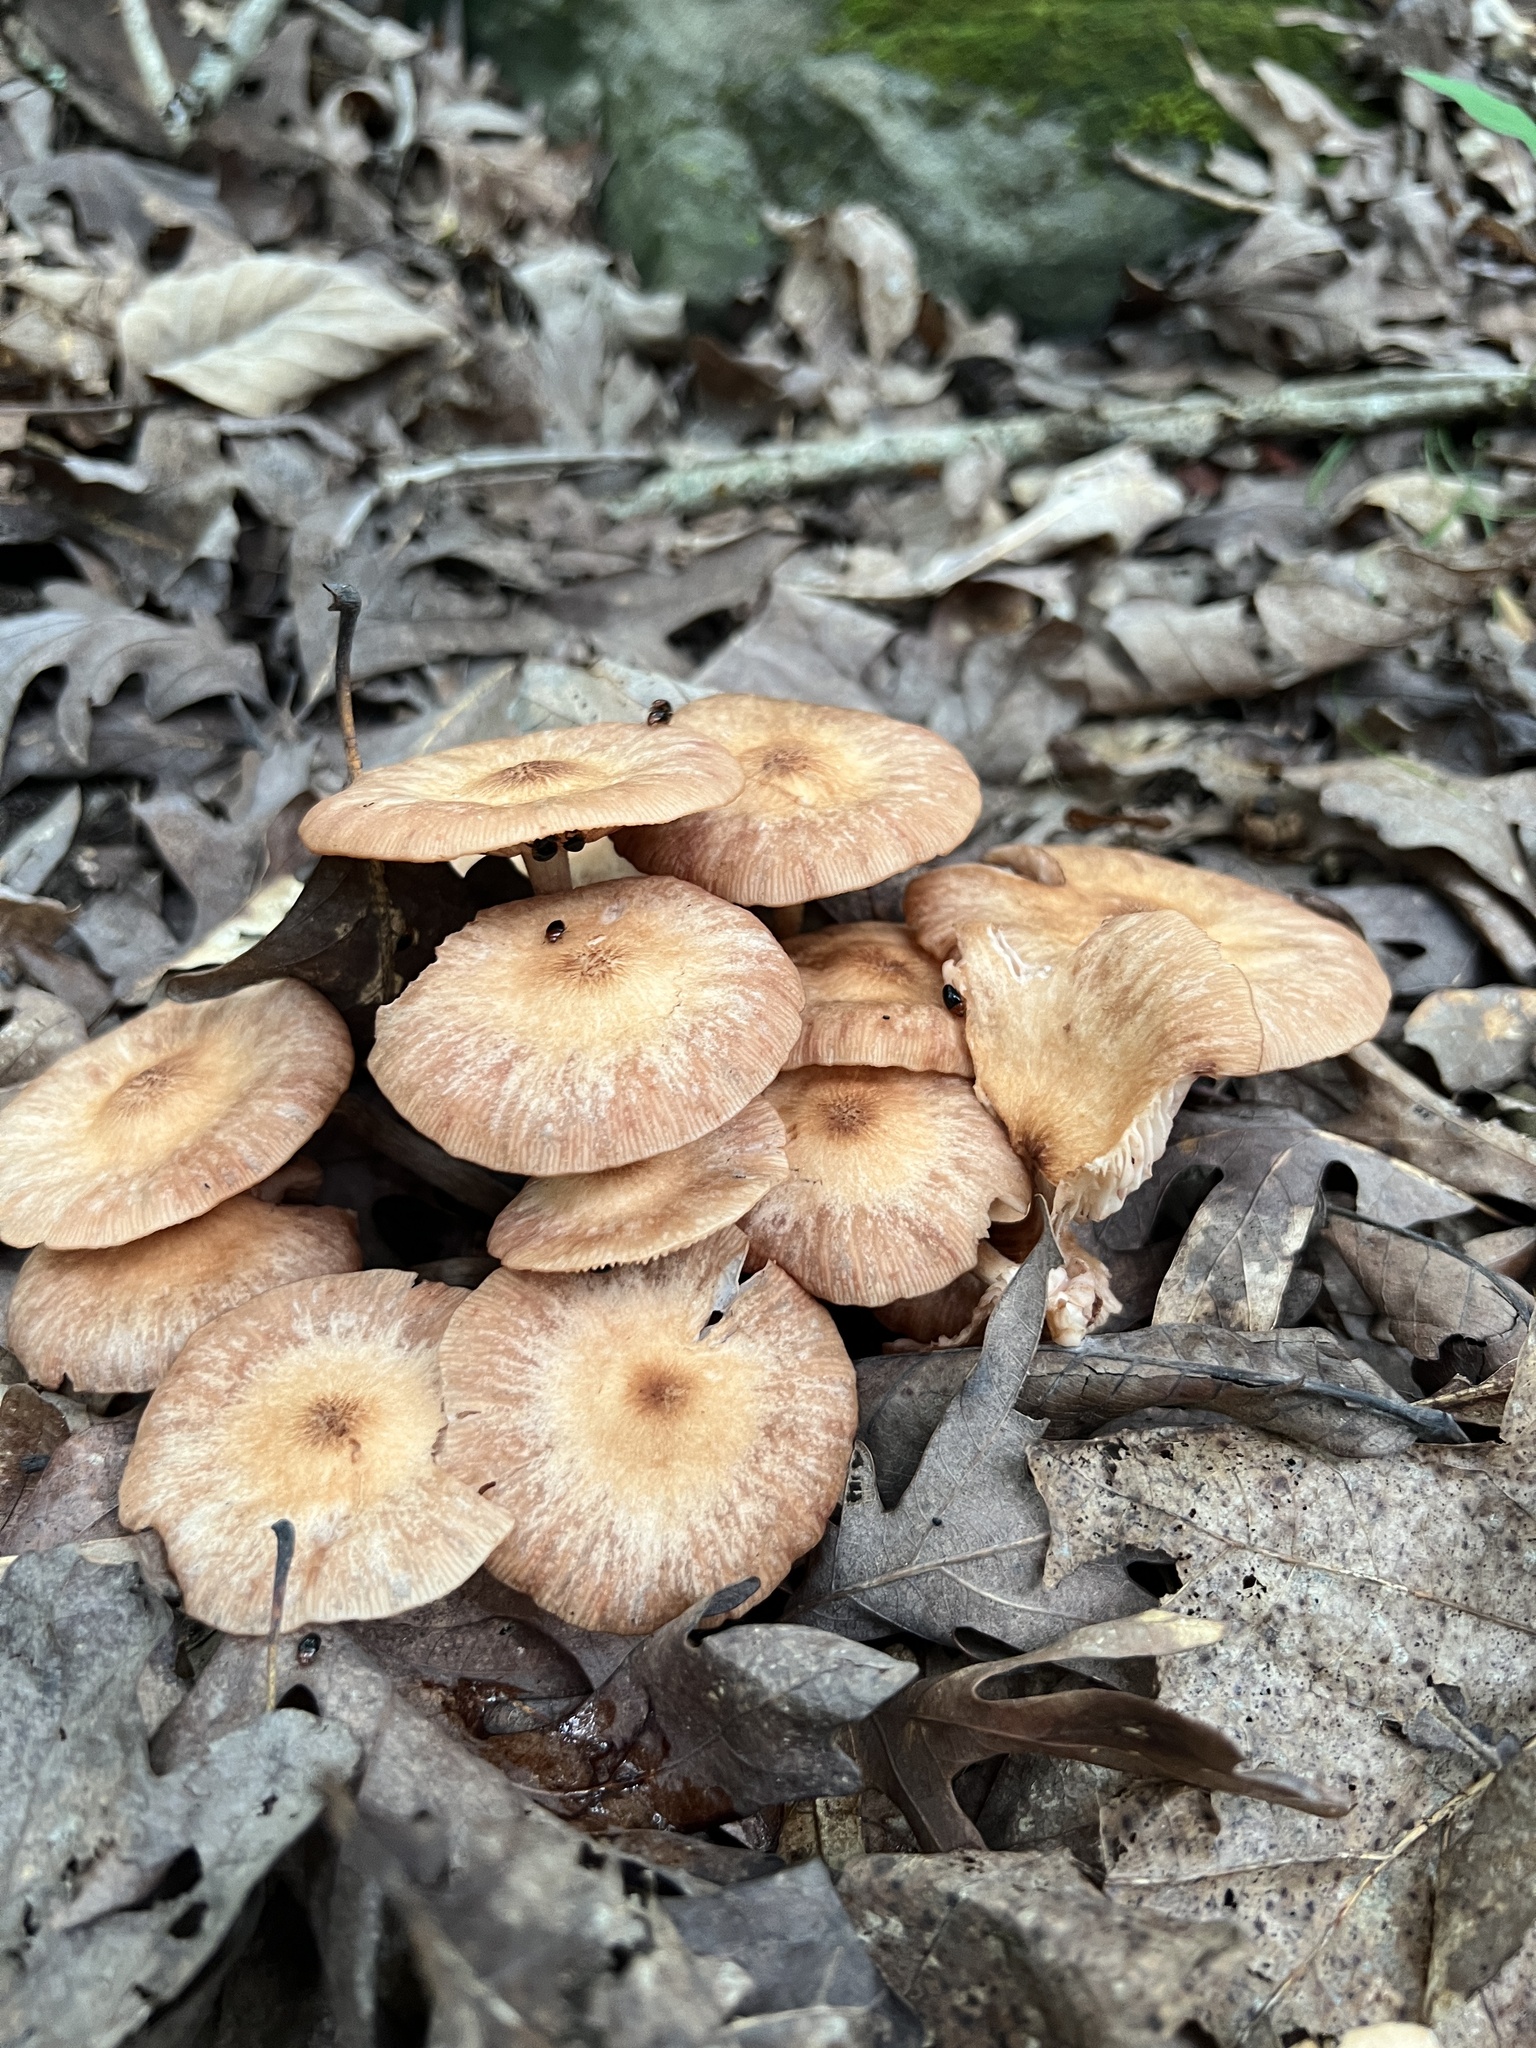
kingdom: Fungi
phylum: Basidiomycota
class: Agaricomycetes
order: Agaricales
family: Physalacriaceae
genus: Desarmillaria
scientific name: Desarmillaria caespitosa
